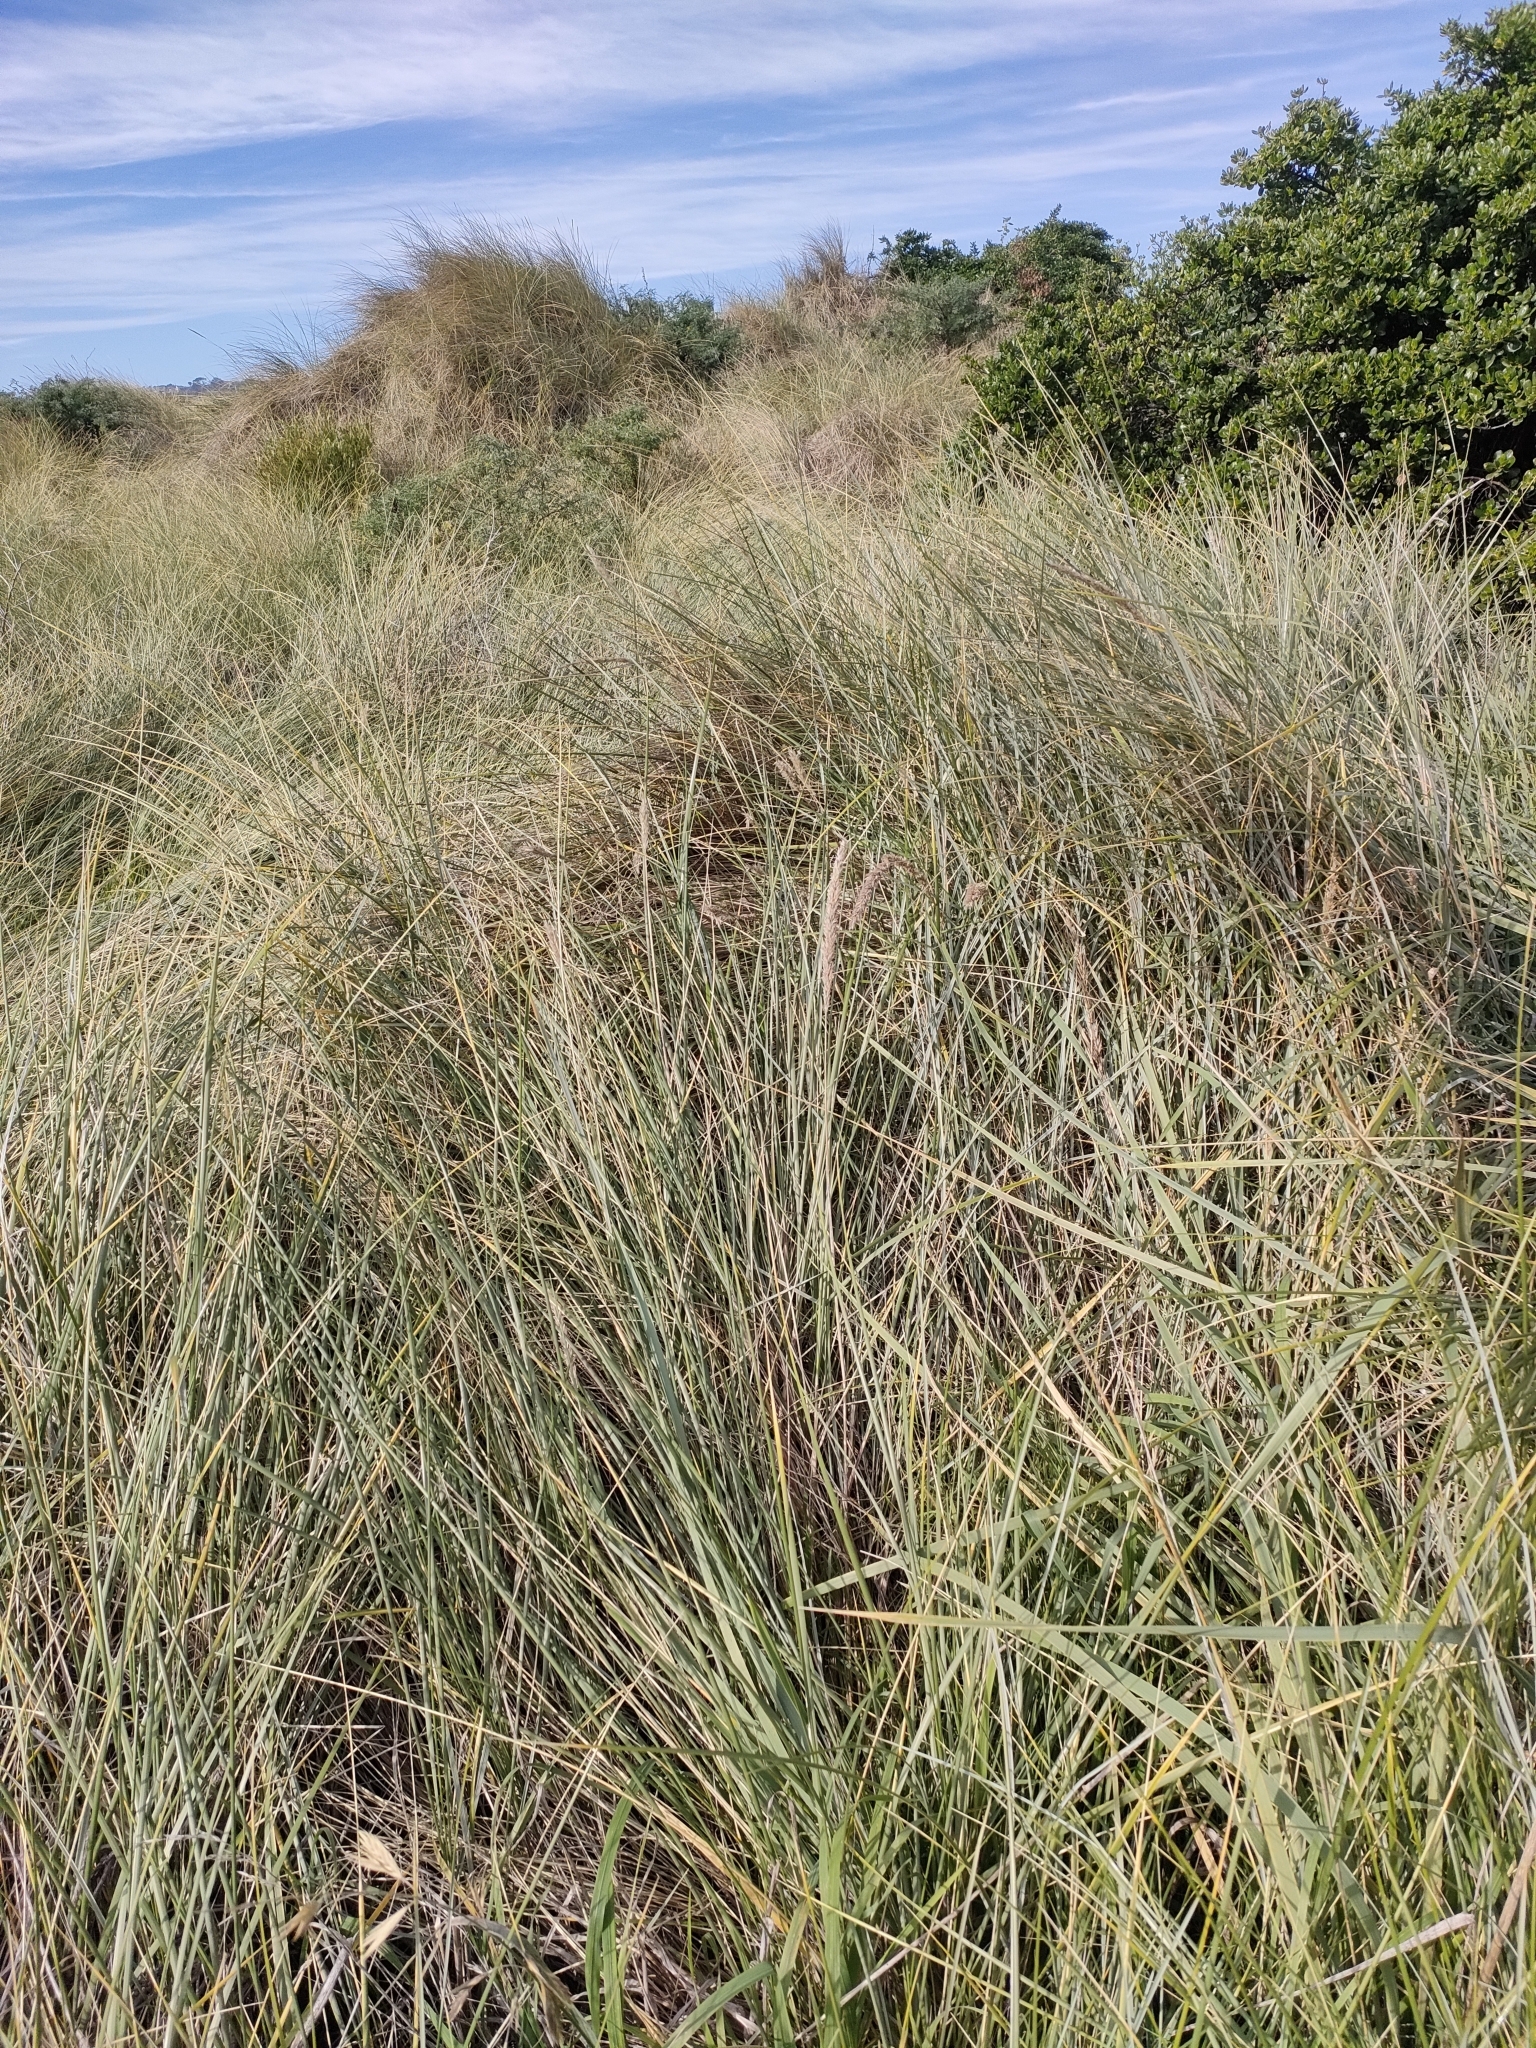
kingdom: Plantae
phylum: Tracheophyta
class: Liliopsida
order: Poales
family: Poaceae
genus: Calamagrostis
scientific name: Calamagrostis arenaria
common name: European beachgrass
